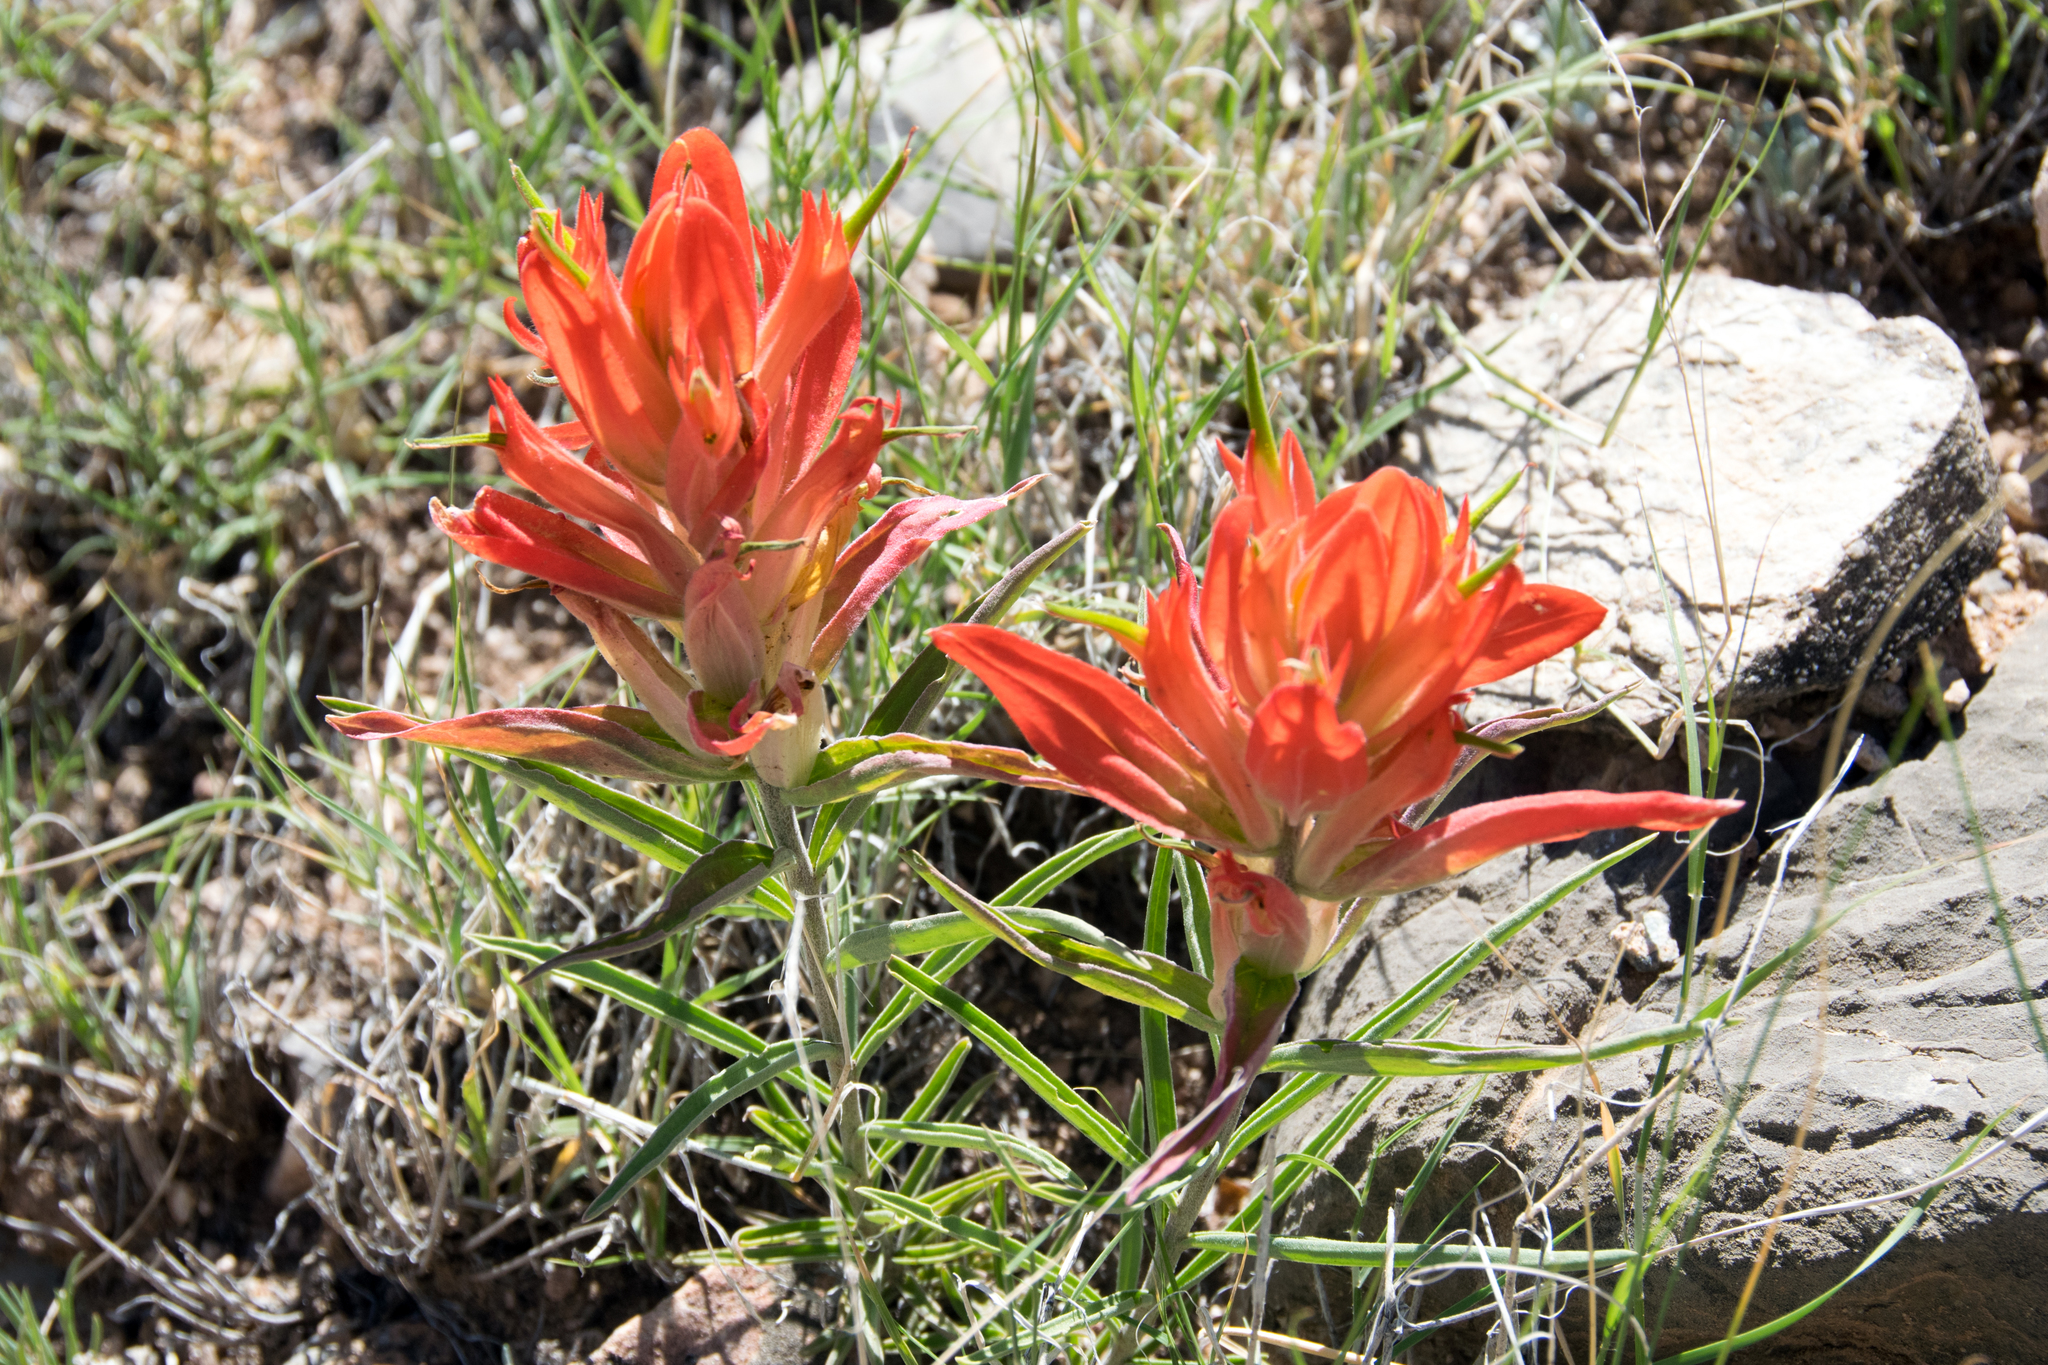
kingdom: Plantae
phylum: Tracheophyta
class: Magnoliopsida
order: Lamiales
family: Orobanchaceae
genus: Castilleja
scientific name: Castilleja integra
